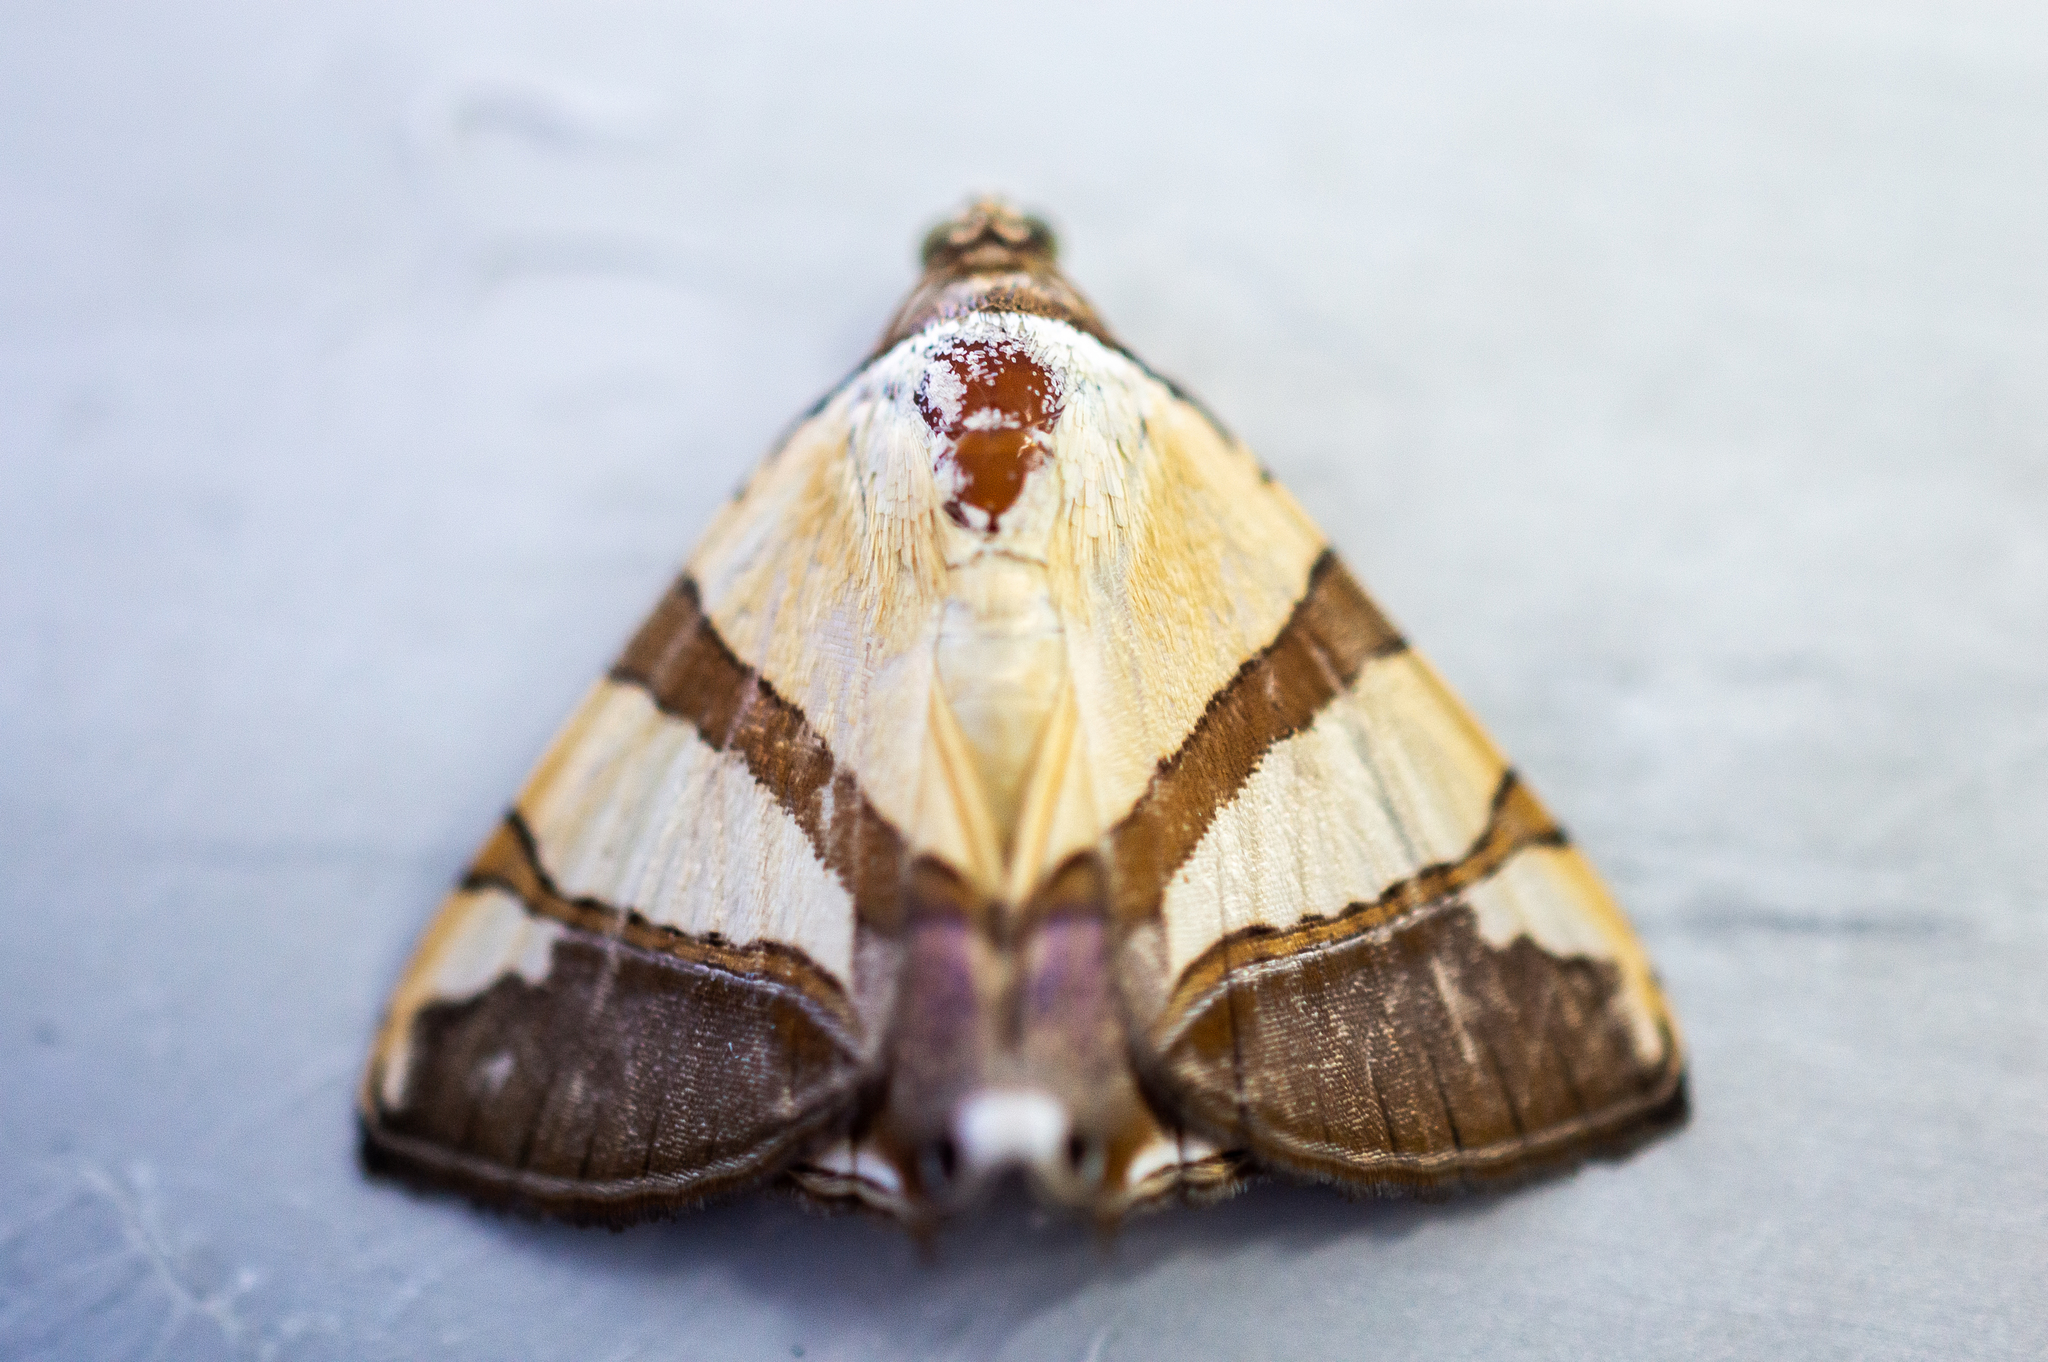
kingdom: Animalia
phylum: Arthropoda
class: Insecta
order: Lepidoptera
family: Erebidae
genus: Eulepidotis
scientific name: Eulepidotis julianata
